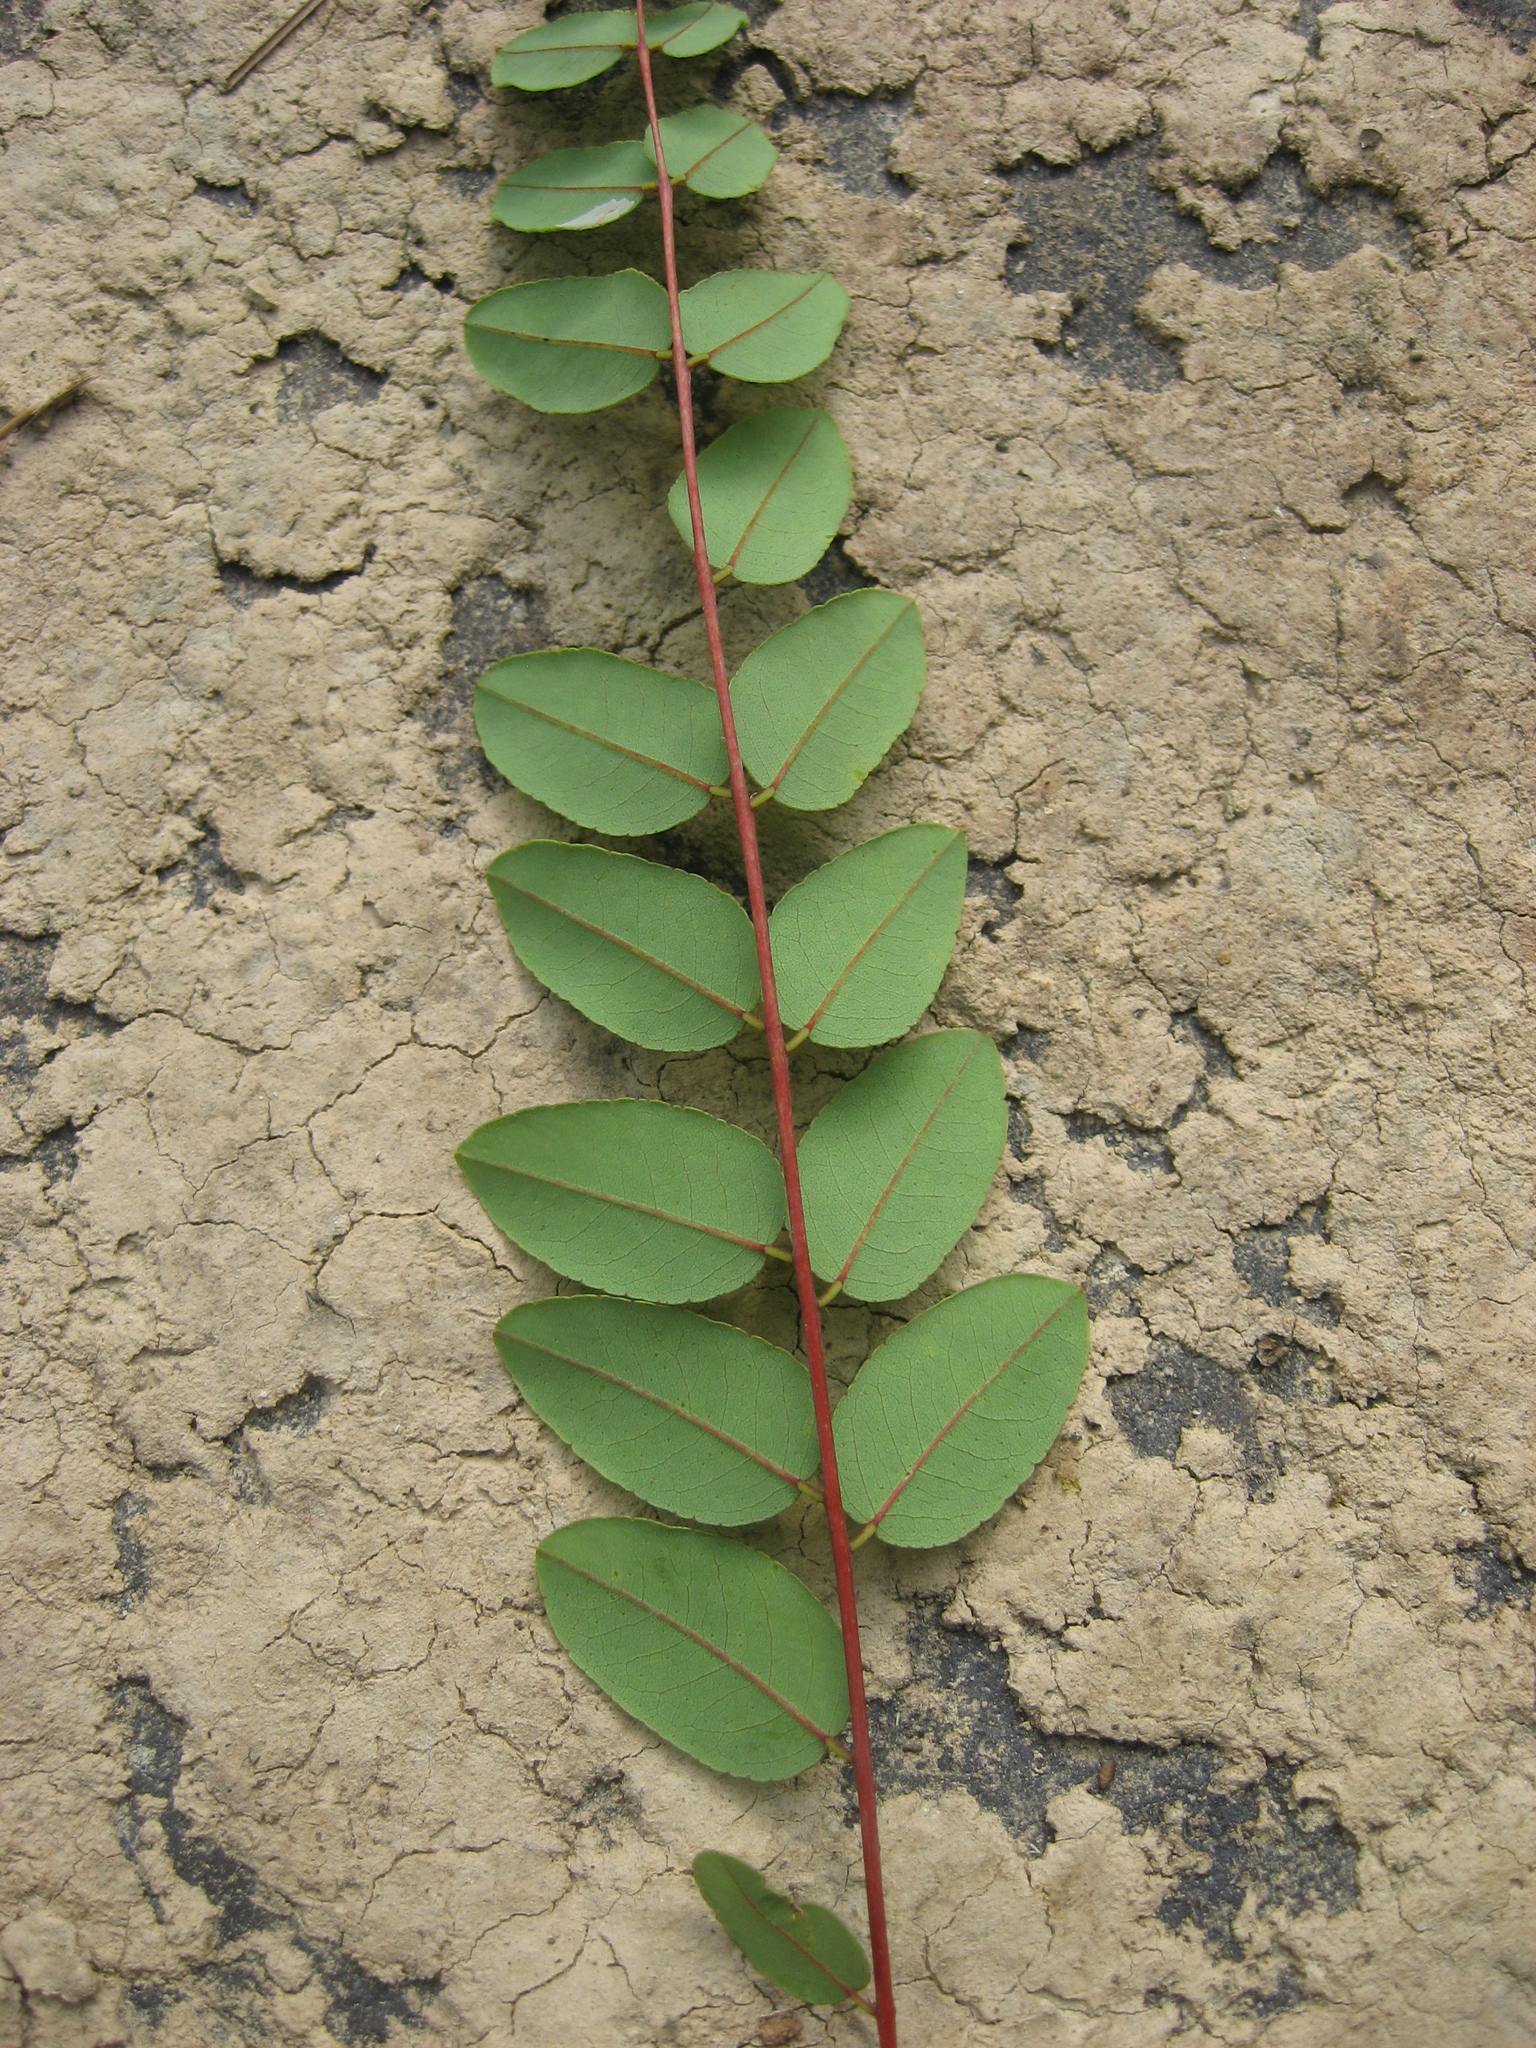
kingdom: Plantae
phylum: Tracheophyta
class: Magnoliopsida
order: Fabales
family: Fabaceae
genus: Amorpha
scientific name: Amorpha glabra
